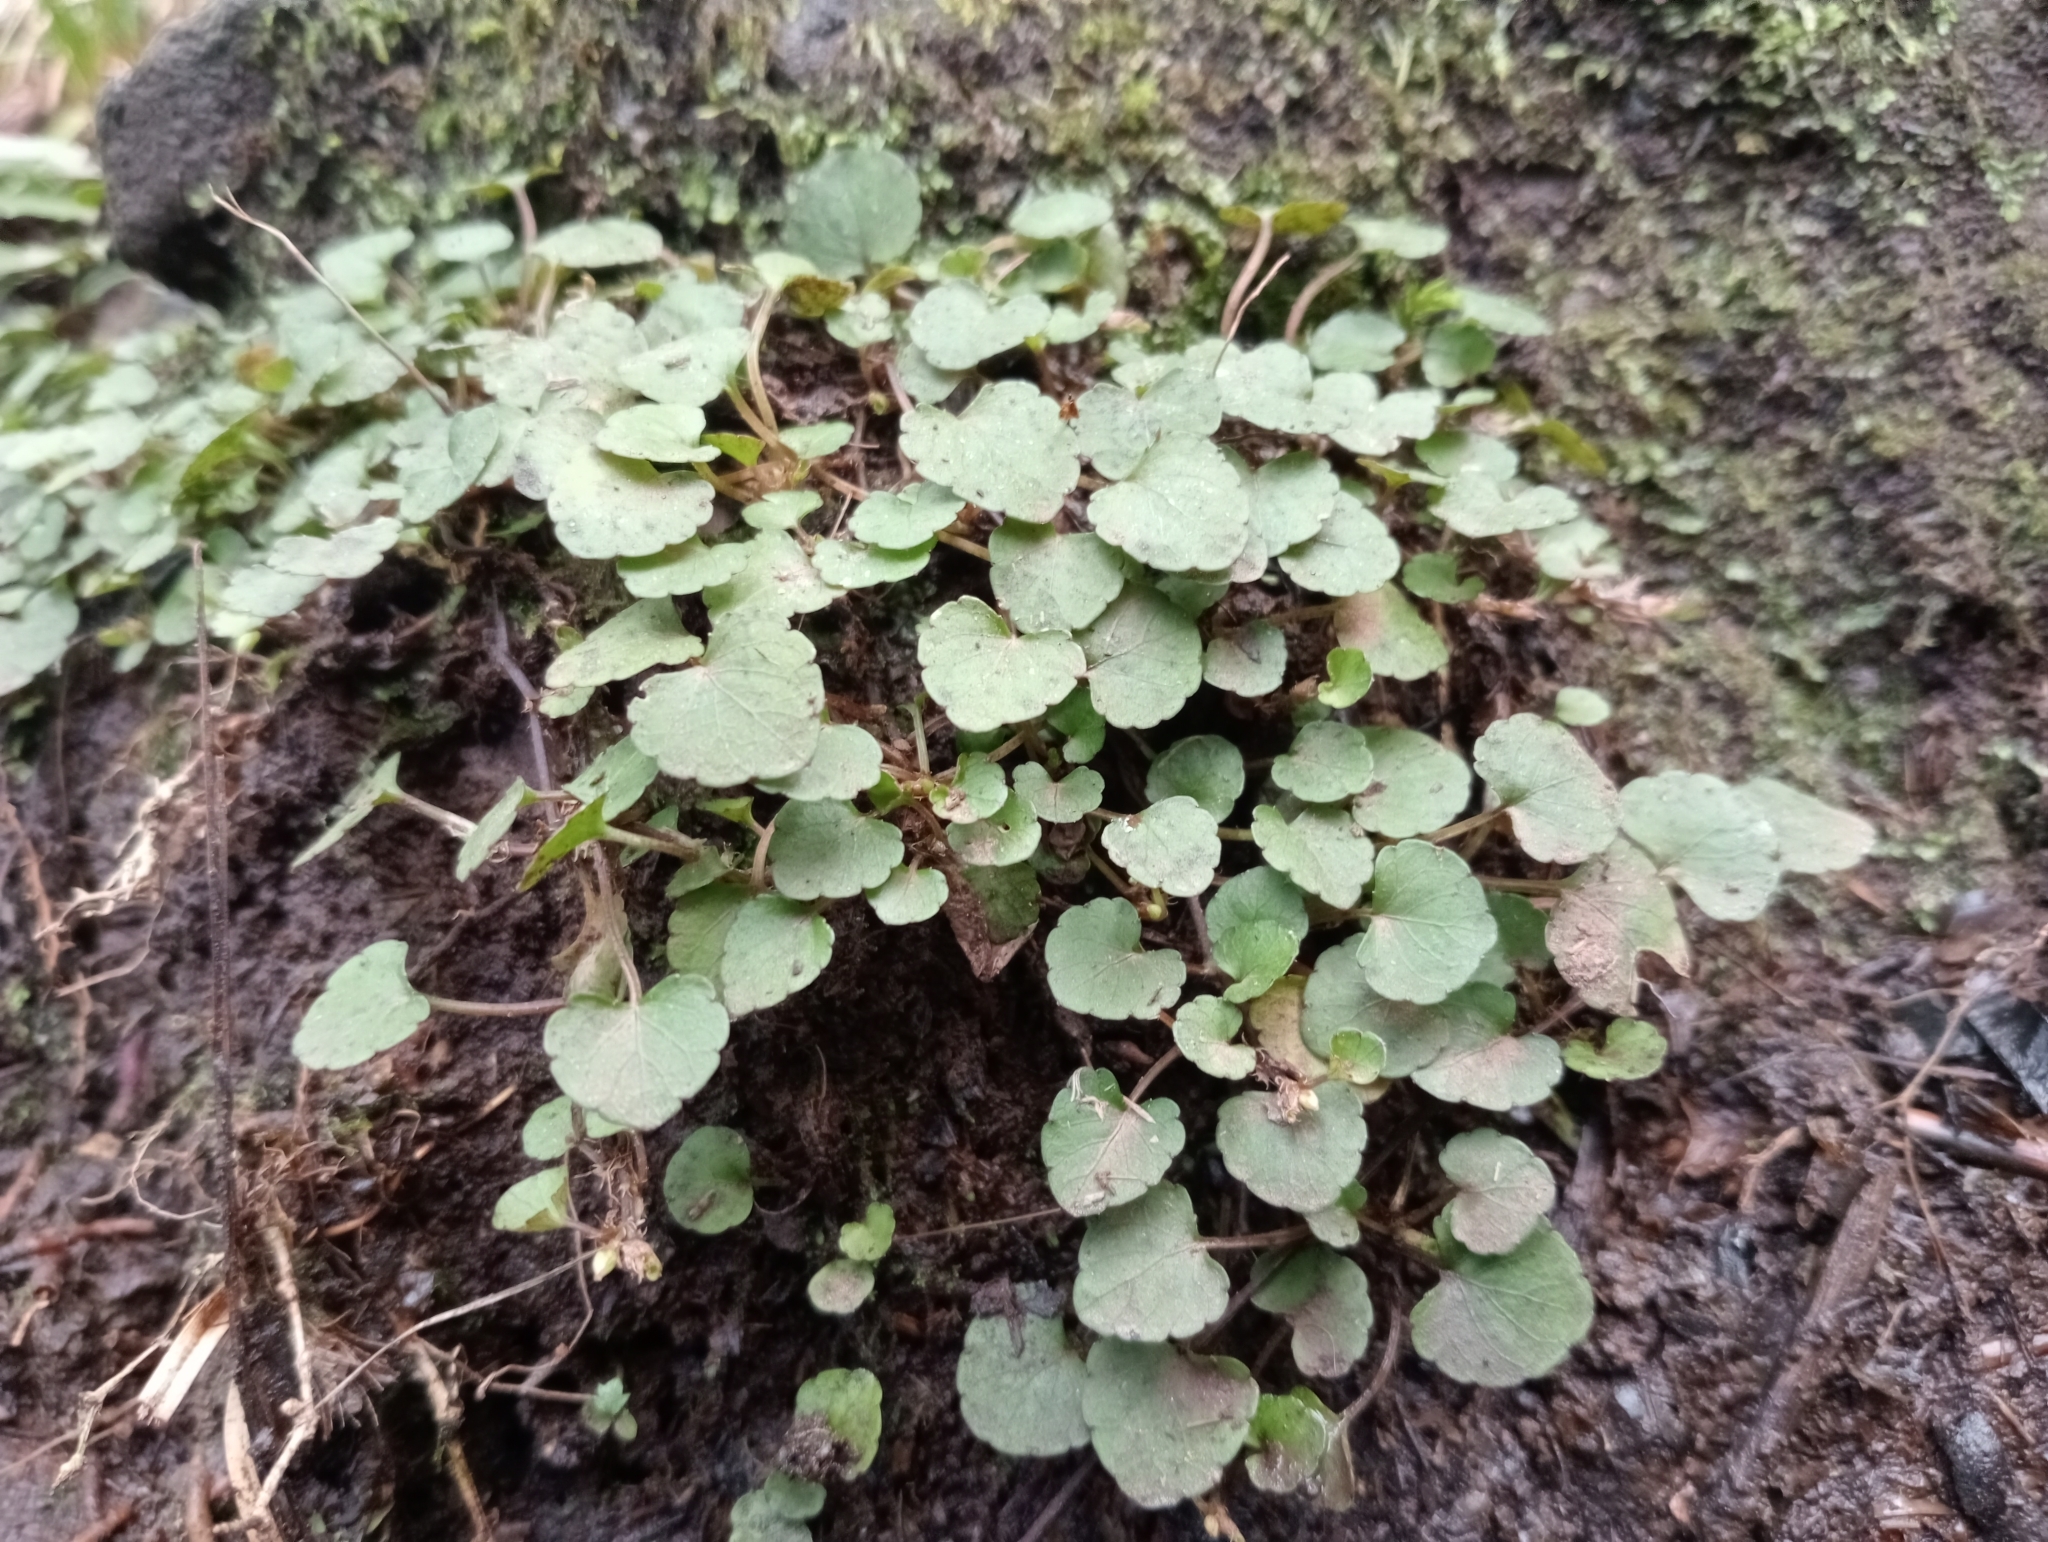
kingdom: Plantae
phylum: Tracheophyta
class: Magnoliopsida
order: Malpighiales
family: Violaceae
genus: Viola
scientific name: Viola filicaulis
